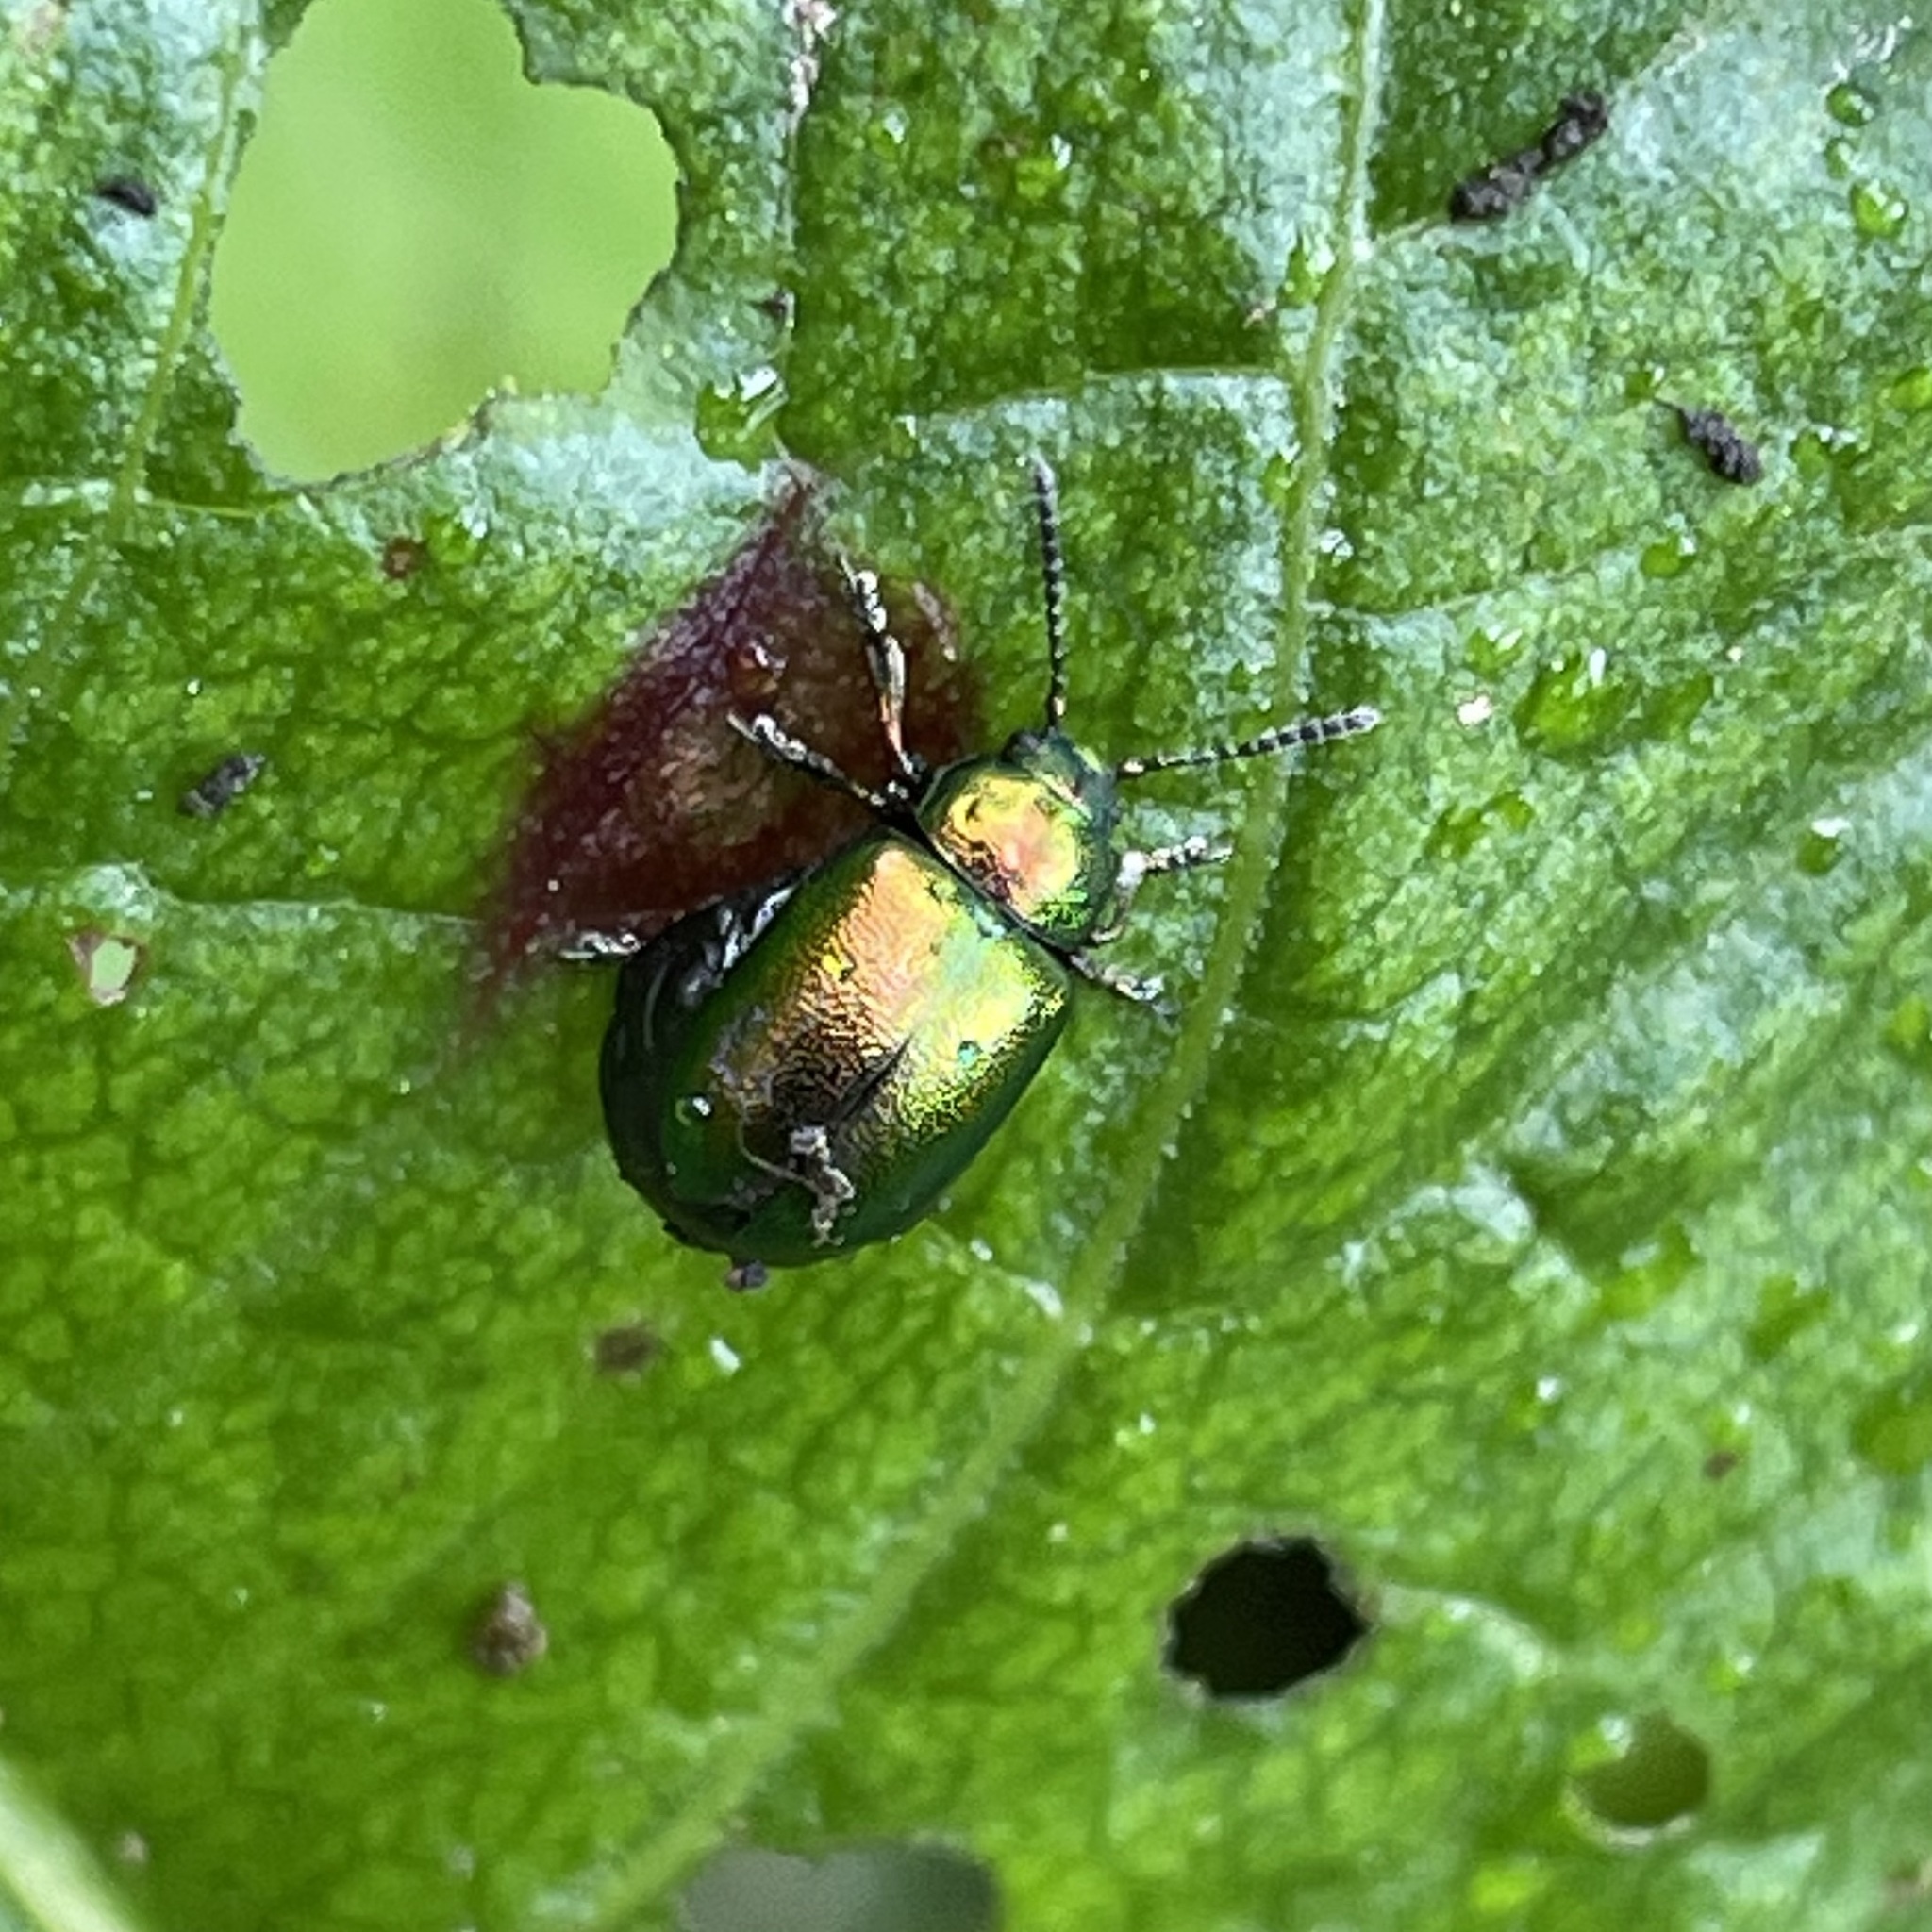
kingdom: Animalia
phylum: Arthropoda
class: Insecta
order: Coleoptera
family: Chrysomelidae
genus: Gastrophysa
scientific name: Gastrophysa viridula
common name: Green dock beetle
